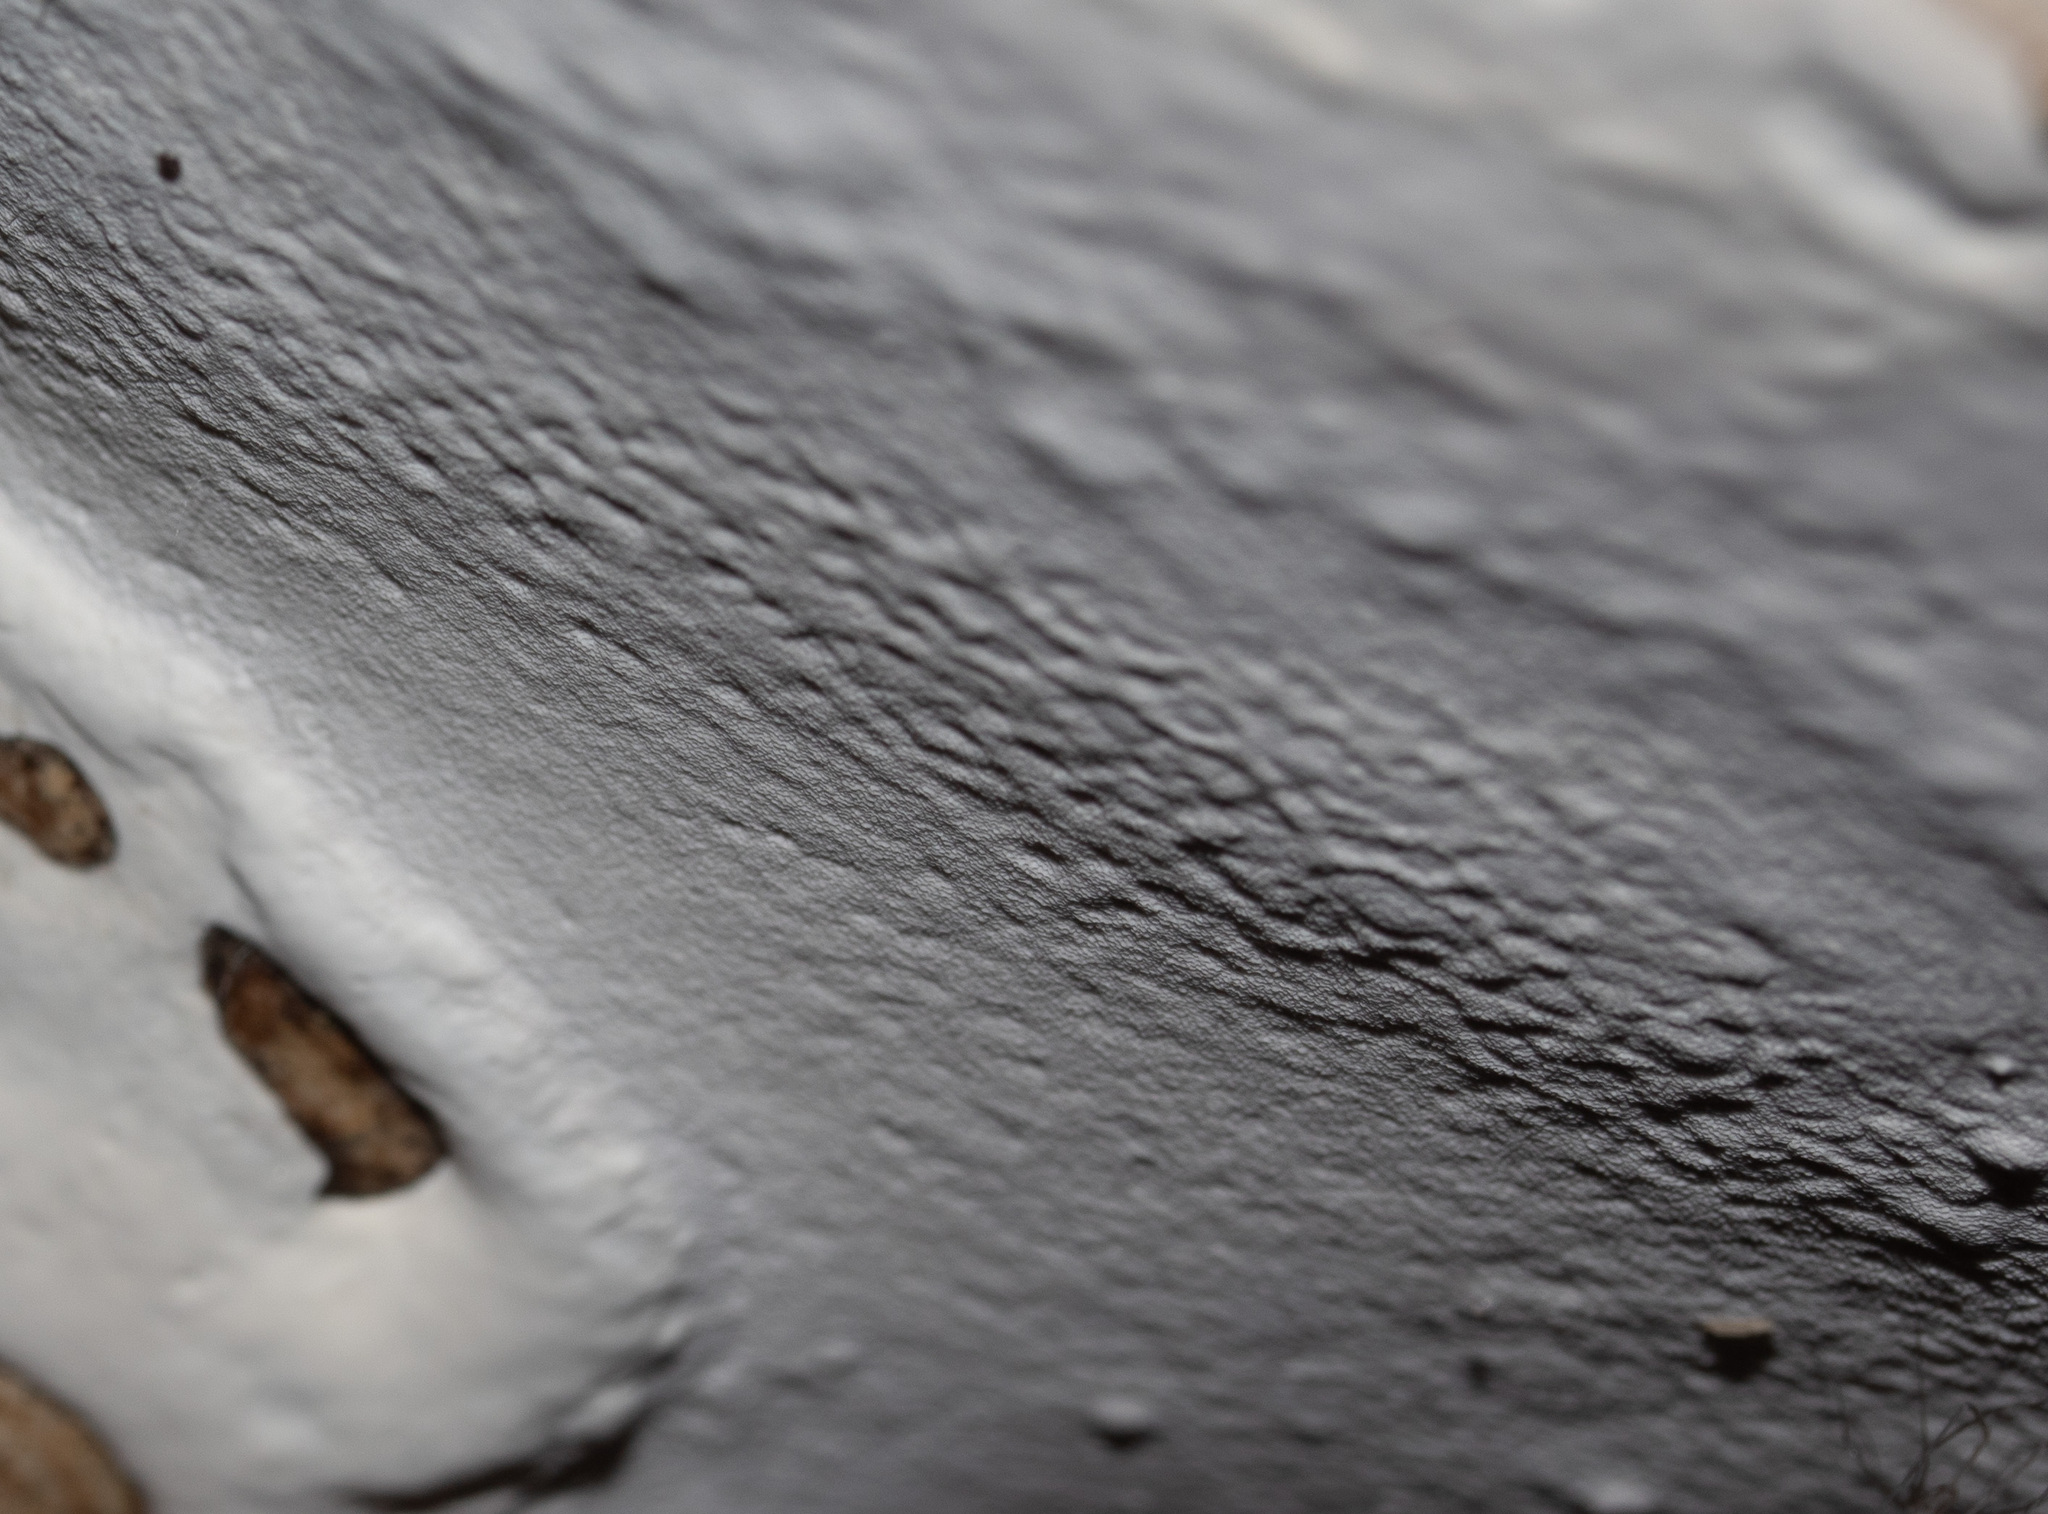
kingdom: Fungi
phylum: Basidiomycota
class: Agaricomycetes
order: Polyporales
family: Polyporaceae
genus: Ganoderma
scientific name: Ganoderma applanatum
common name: Artist's bracket
